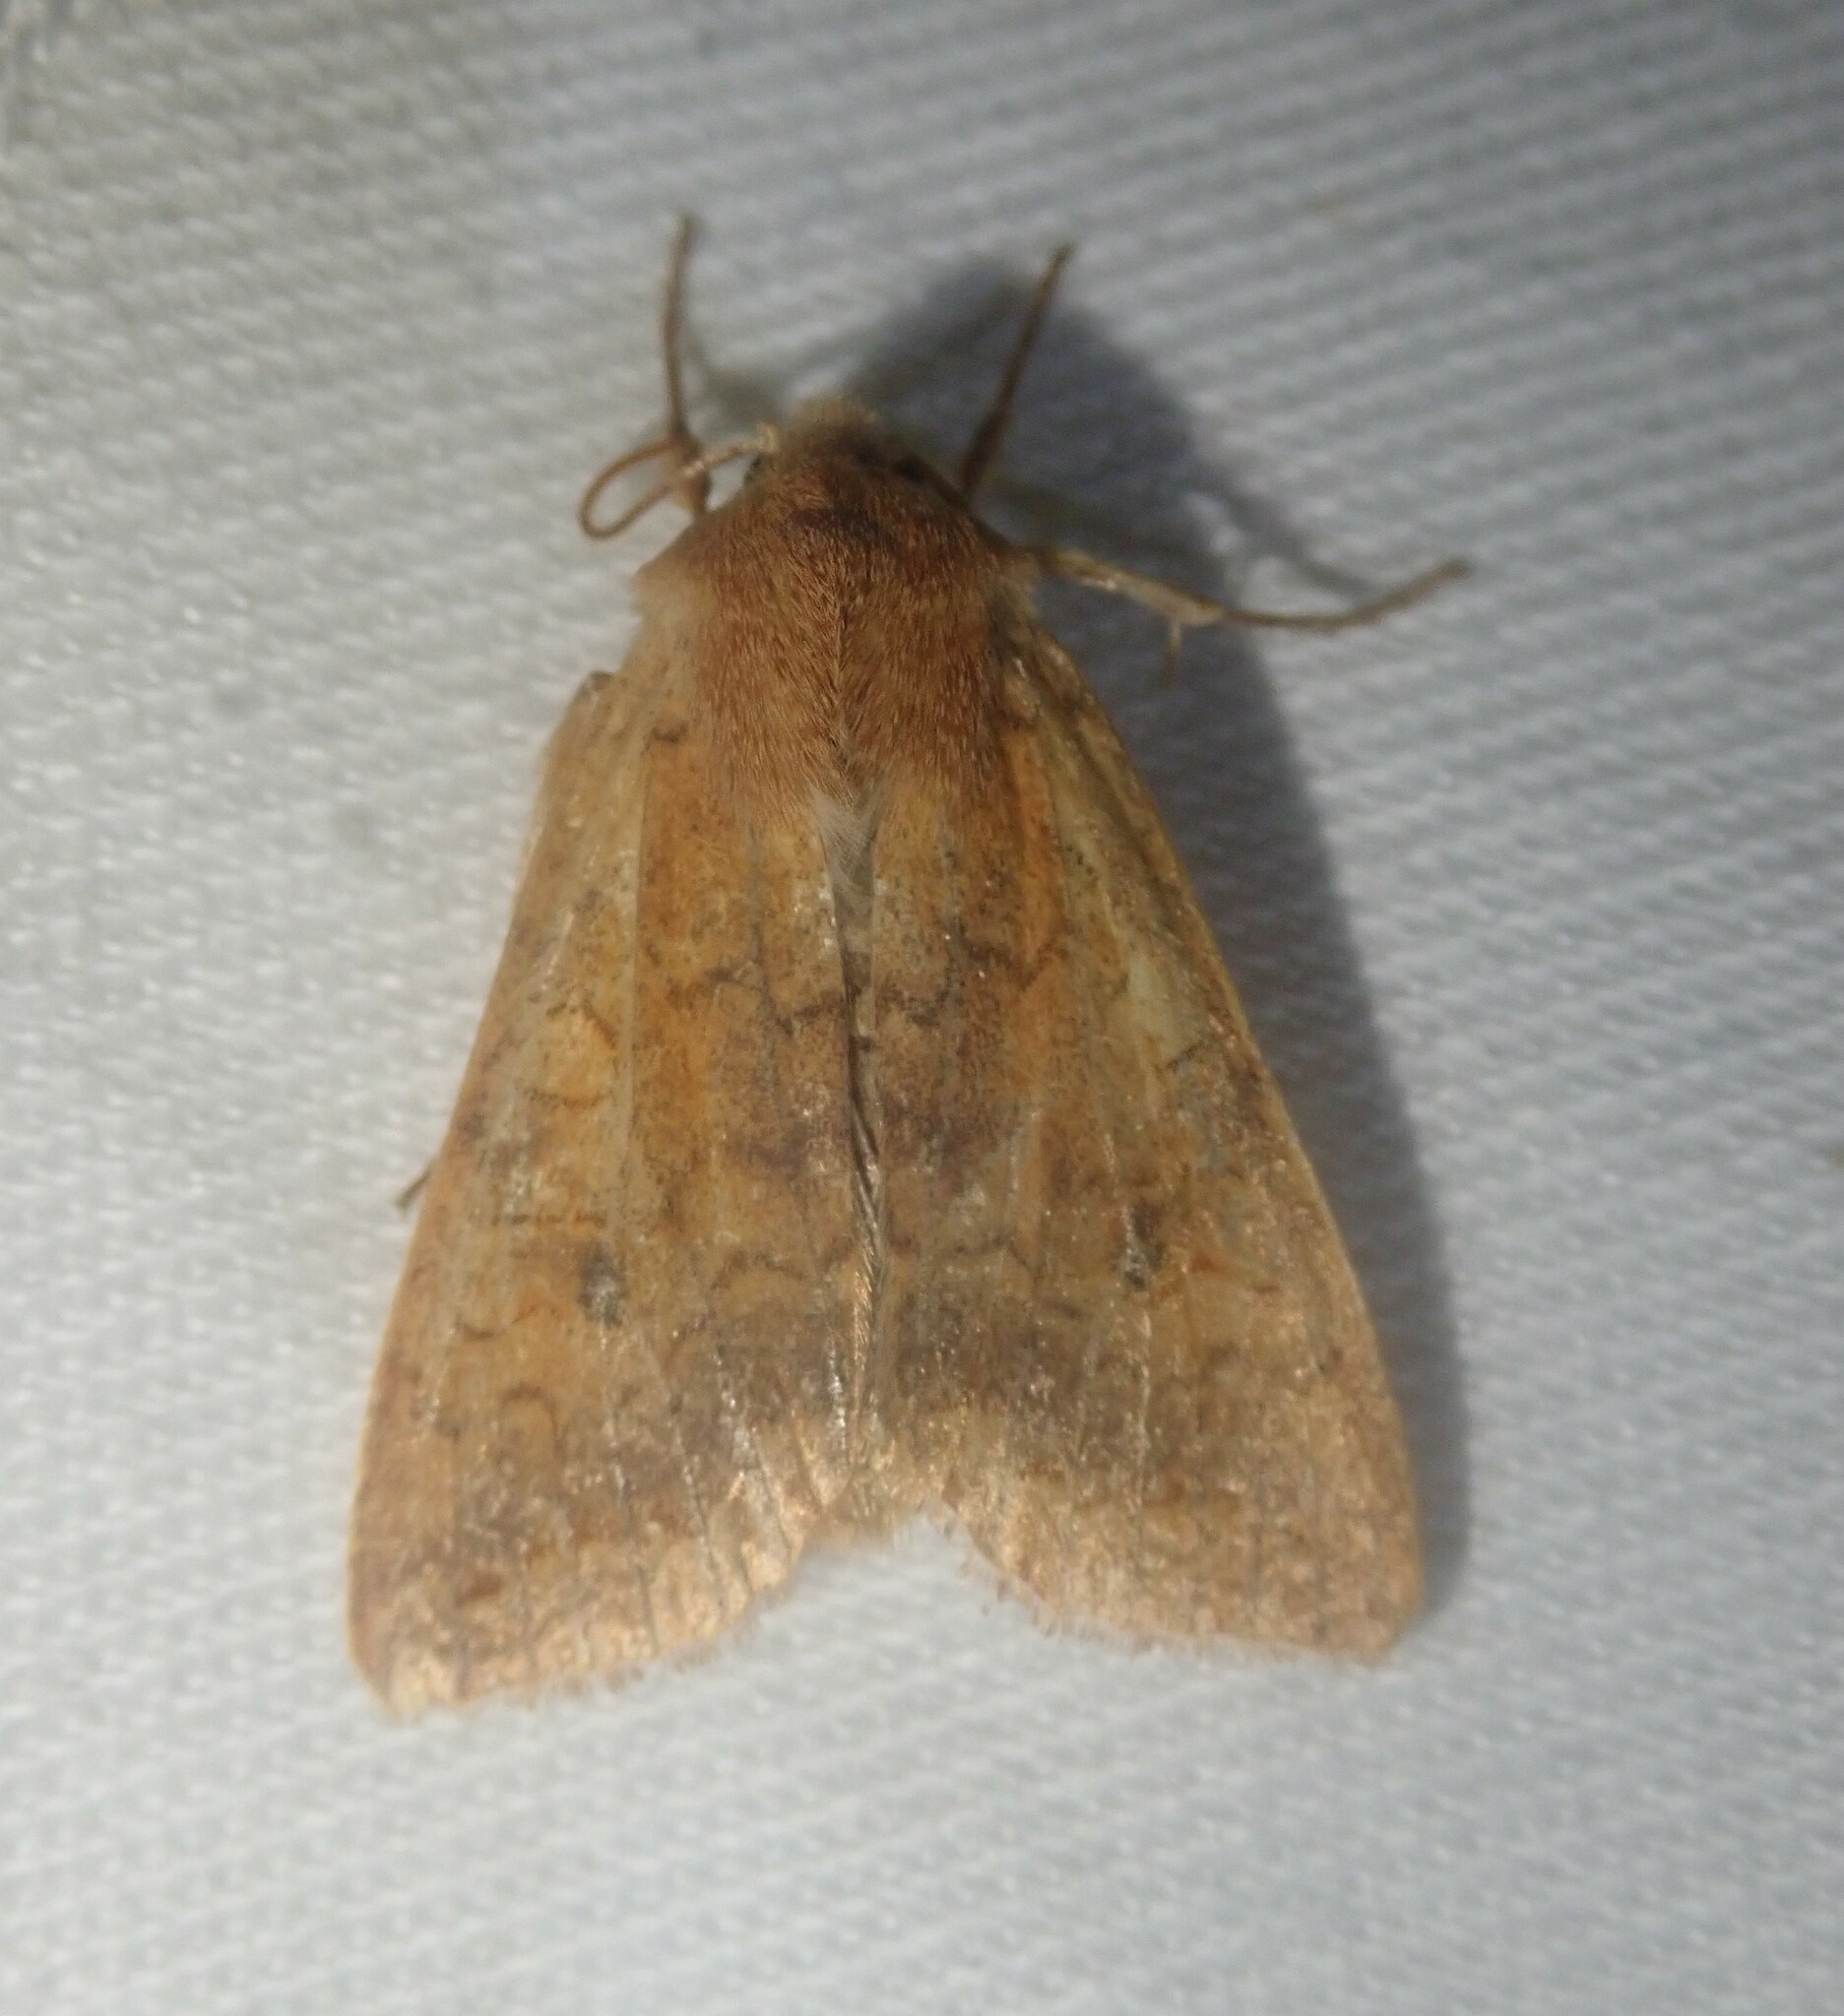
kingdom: Animalia
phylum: Arthropoda
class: Insecta
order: Lepidoptera
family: Noctuidae
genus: Sunira
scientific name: Sunira circellaris
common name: Brick
